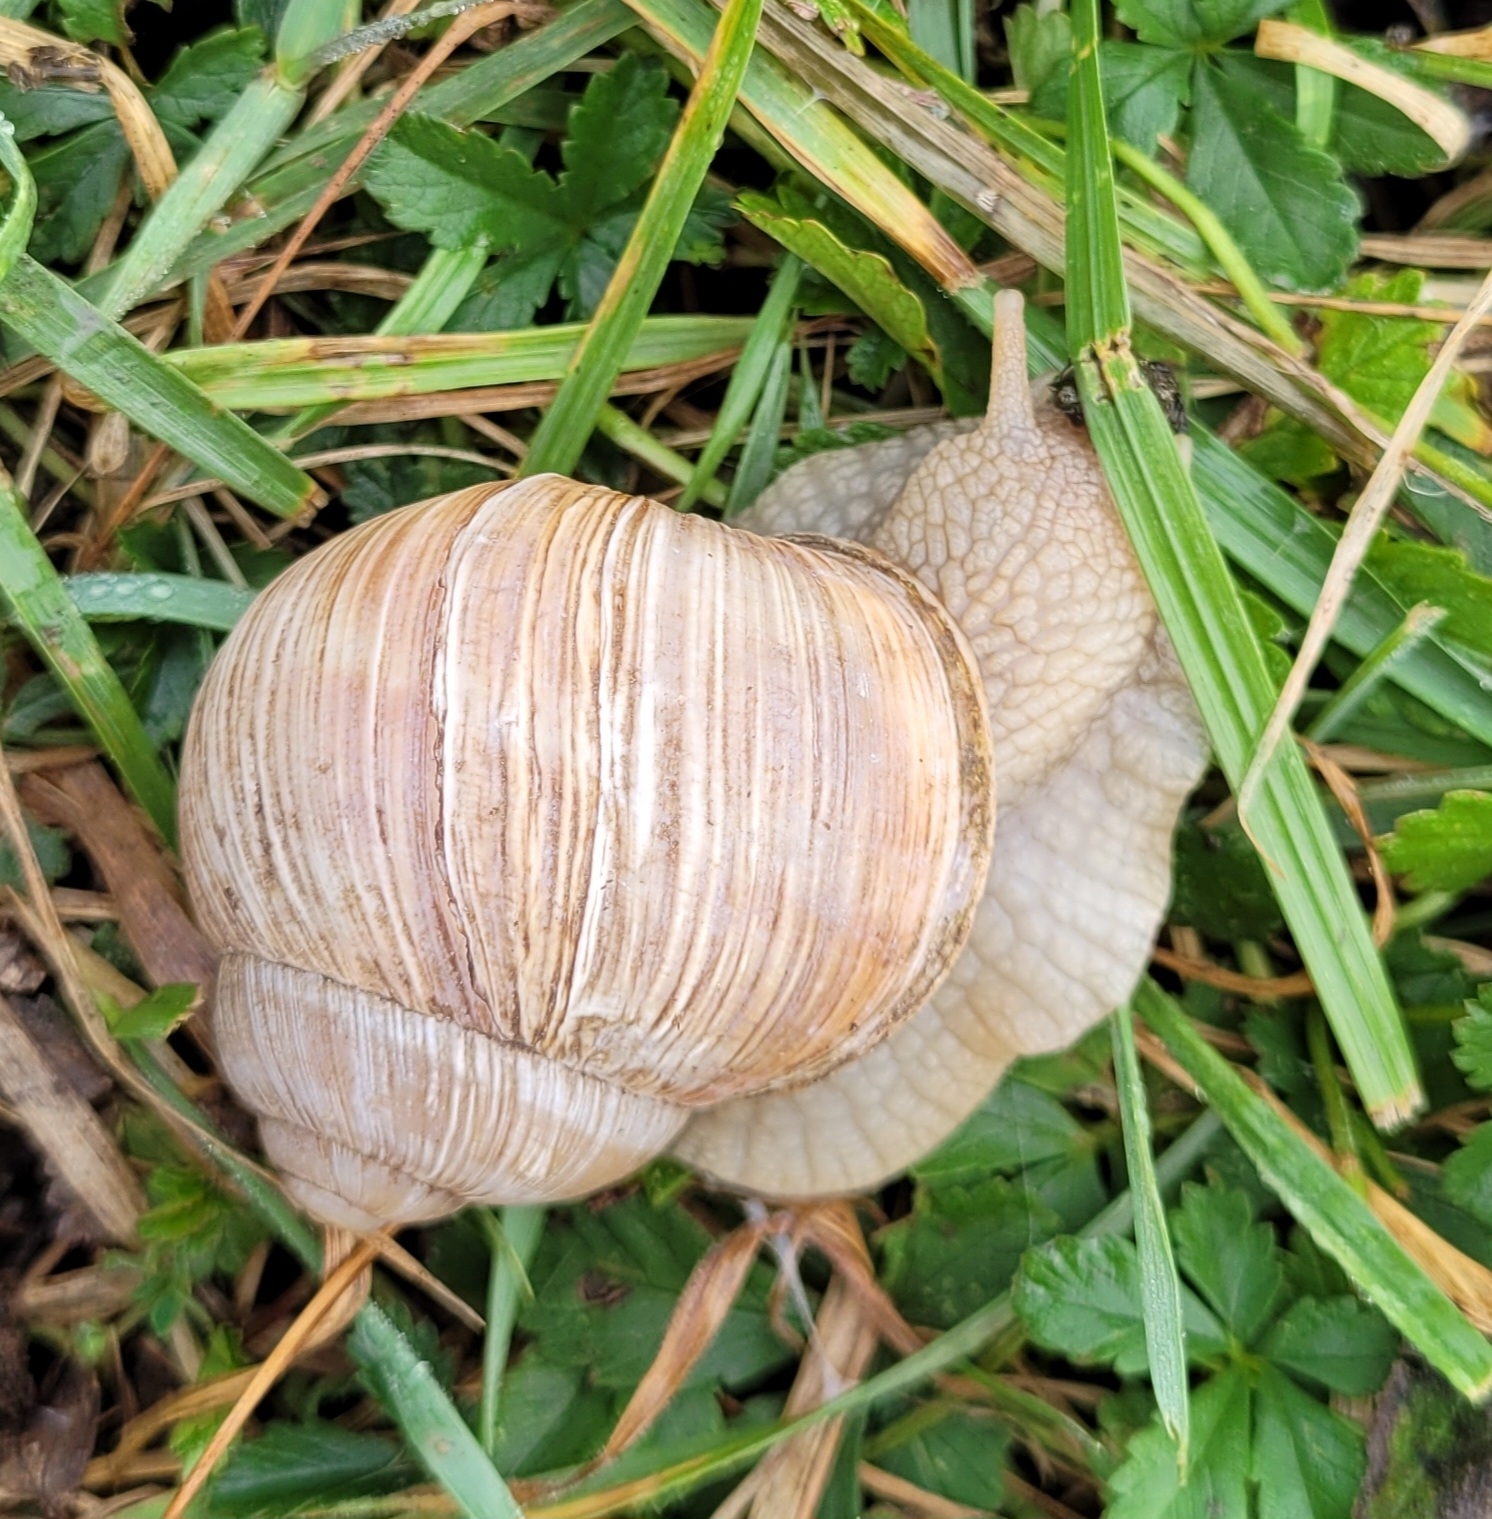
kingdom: Animalia
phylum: Mollusca
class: Gastropoda
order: Stylommatophora
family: Helicidae
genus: Helix
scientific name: Helix pomatia
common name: Roman snail
